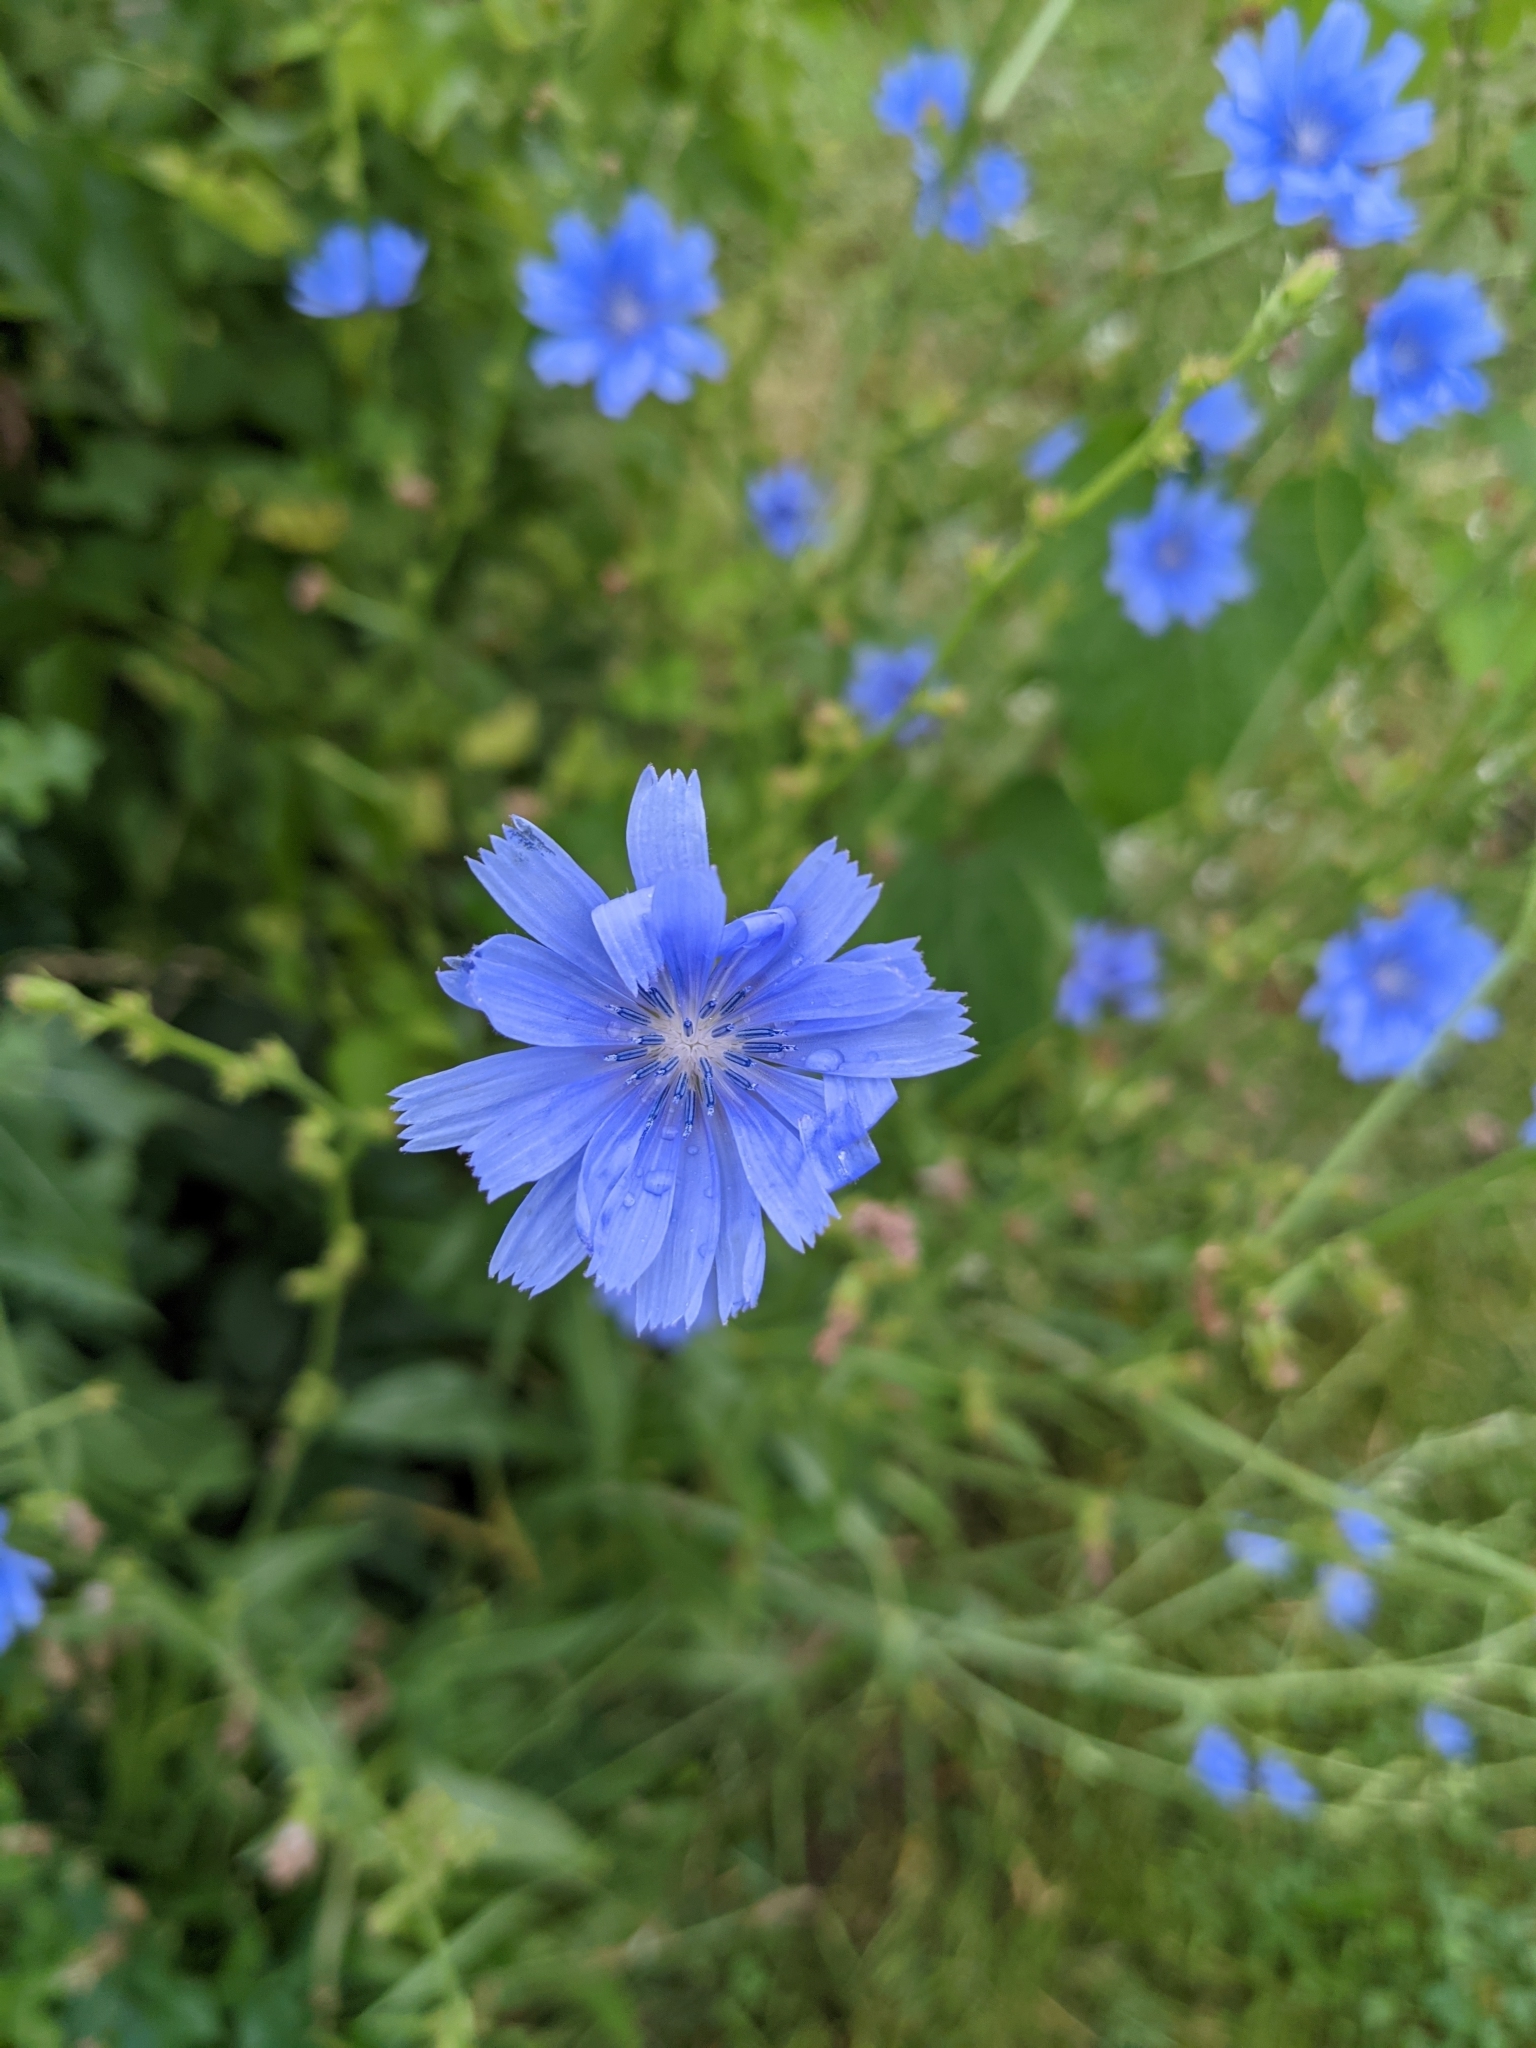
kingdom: Plantae
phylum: Tracheophyta
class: Magnoliopsida
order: Asterales
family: Asteraceae
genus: Cichorium
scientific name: Cichorium intybus
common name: Chicory
